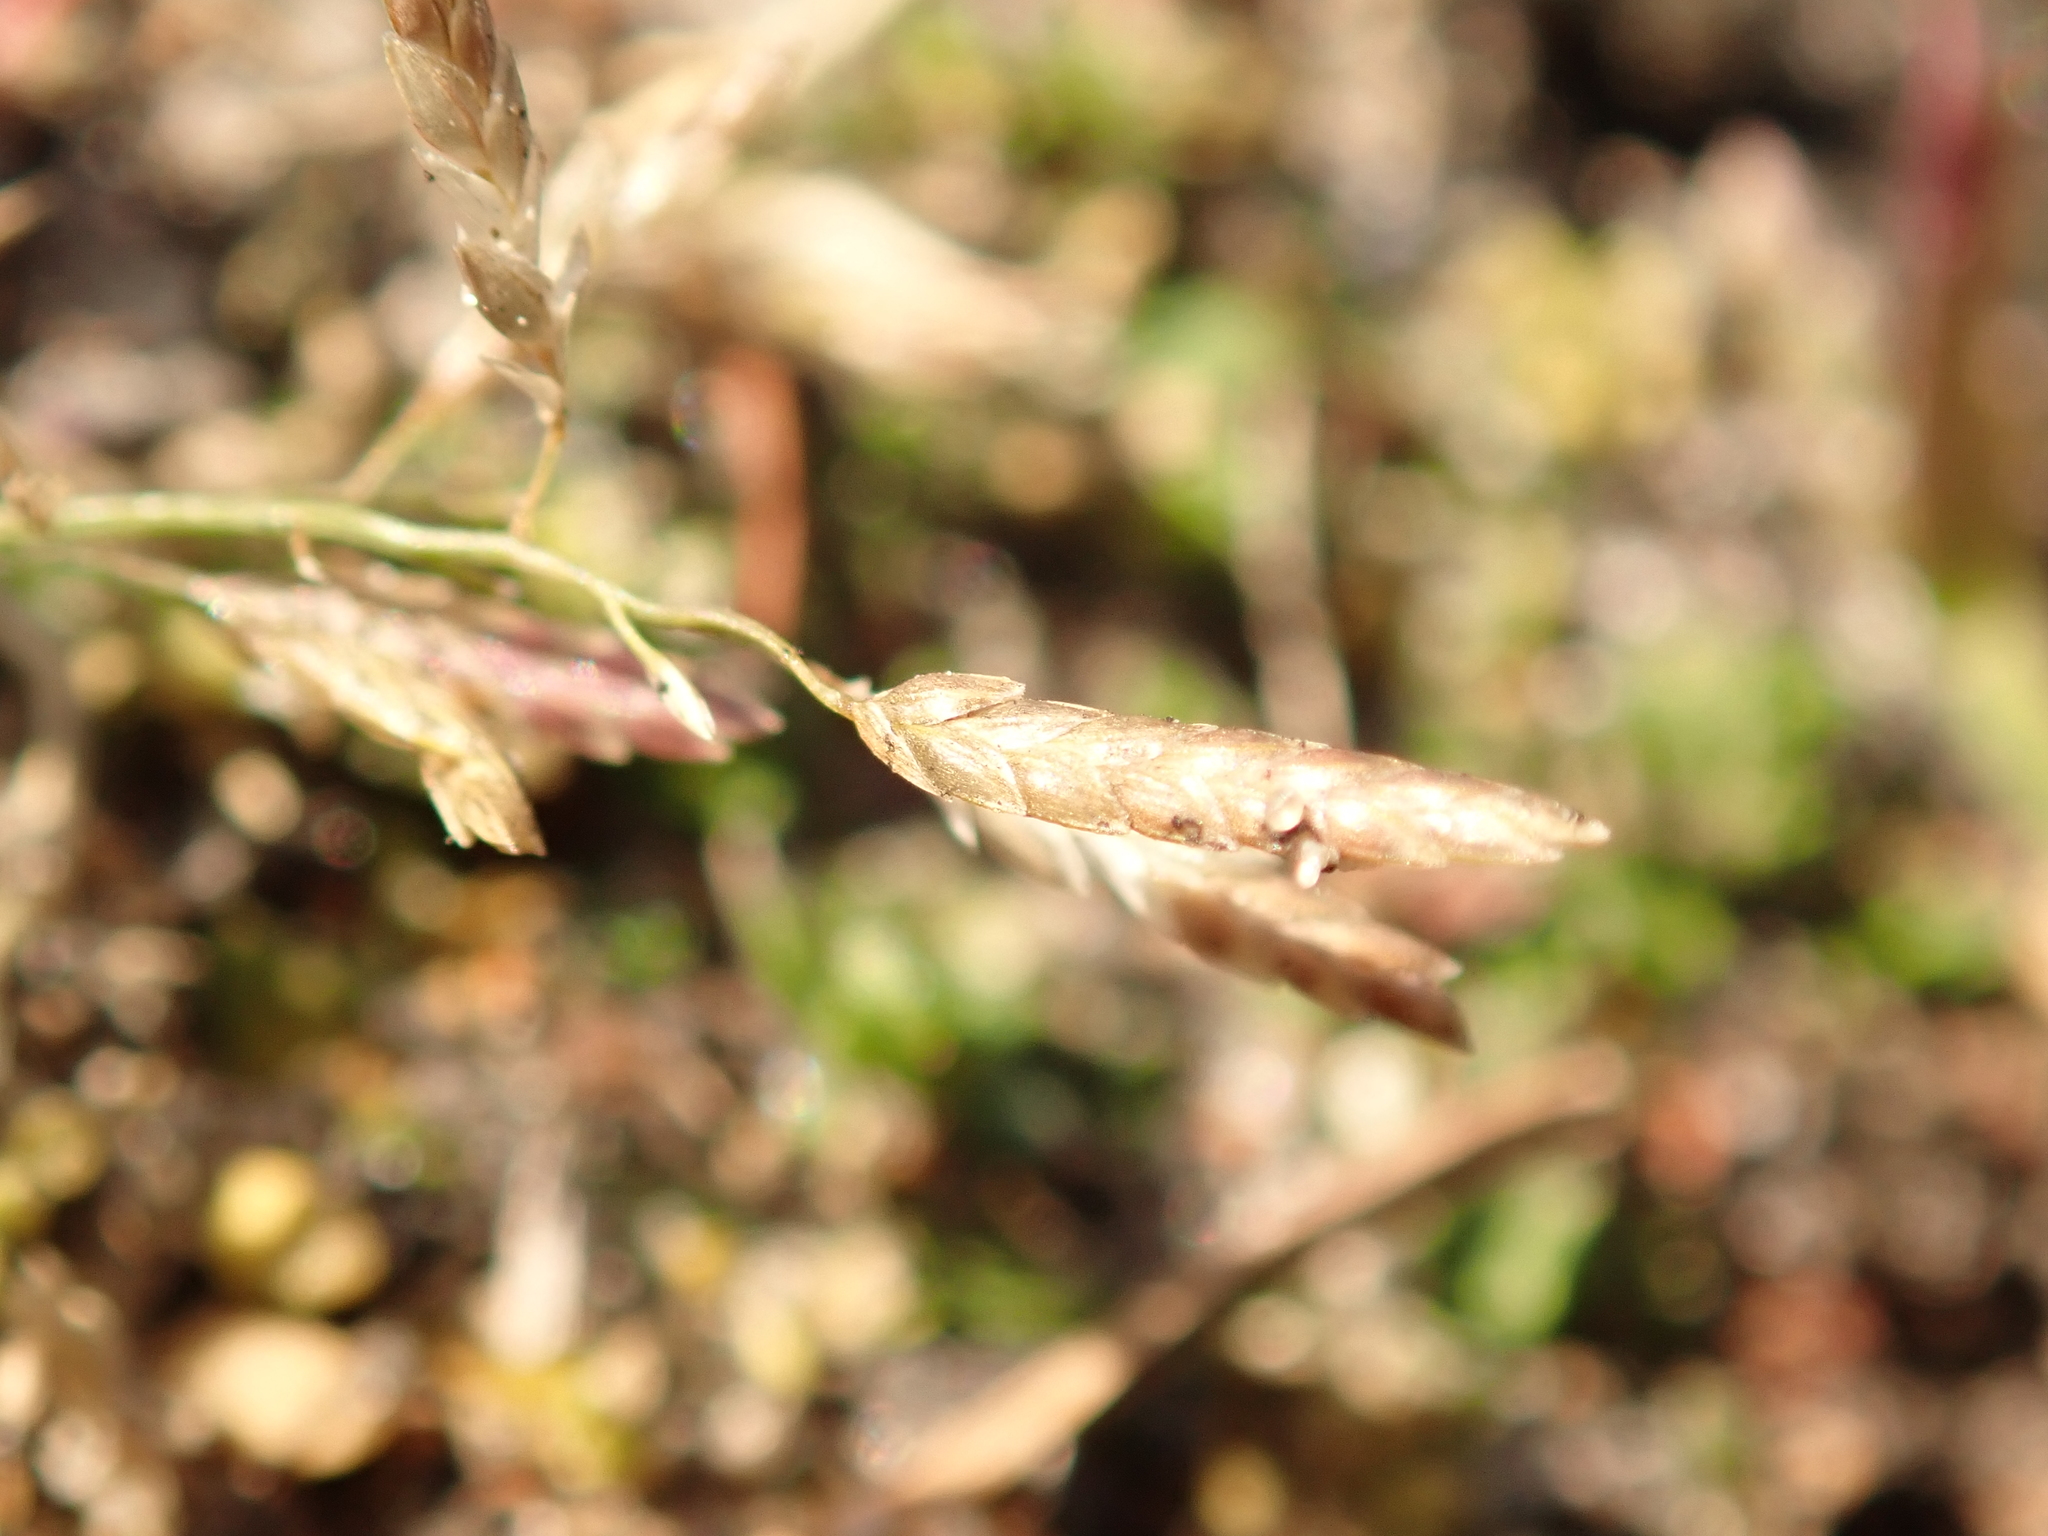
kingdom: Plantae
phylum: Tracheophyta
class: Liliopsida
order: Poales
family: Poaceae
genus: Eragrostis
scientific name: Eragrostis minor
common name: Small love-grass
